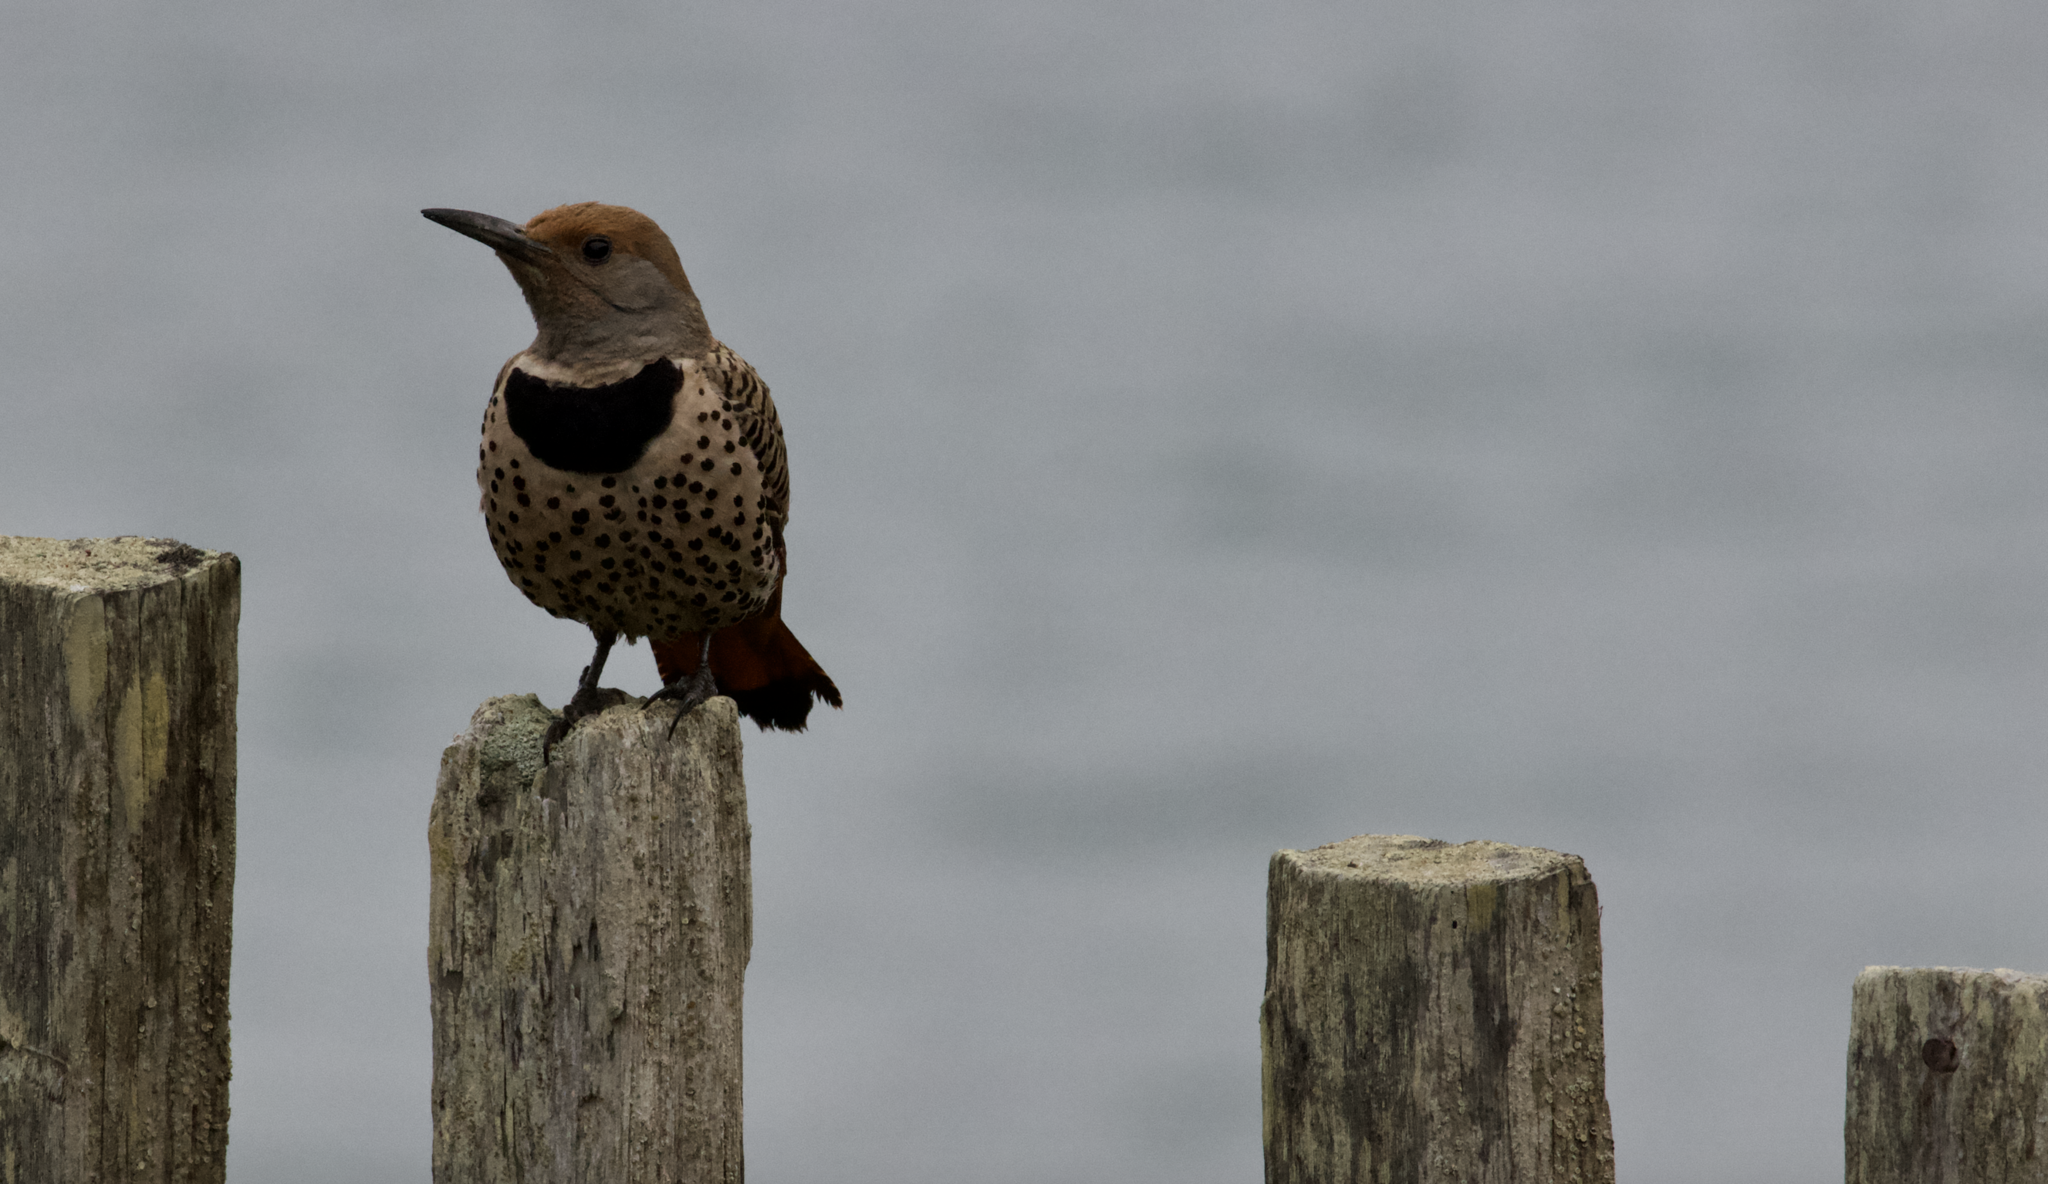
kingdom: Animalia
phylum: Chordata
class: Aves
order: Piciformes
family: Picidae
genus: Colaptes
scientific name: Colaptes auratus
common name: Northern flicker
